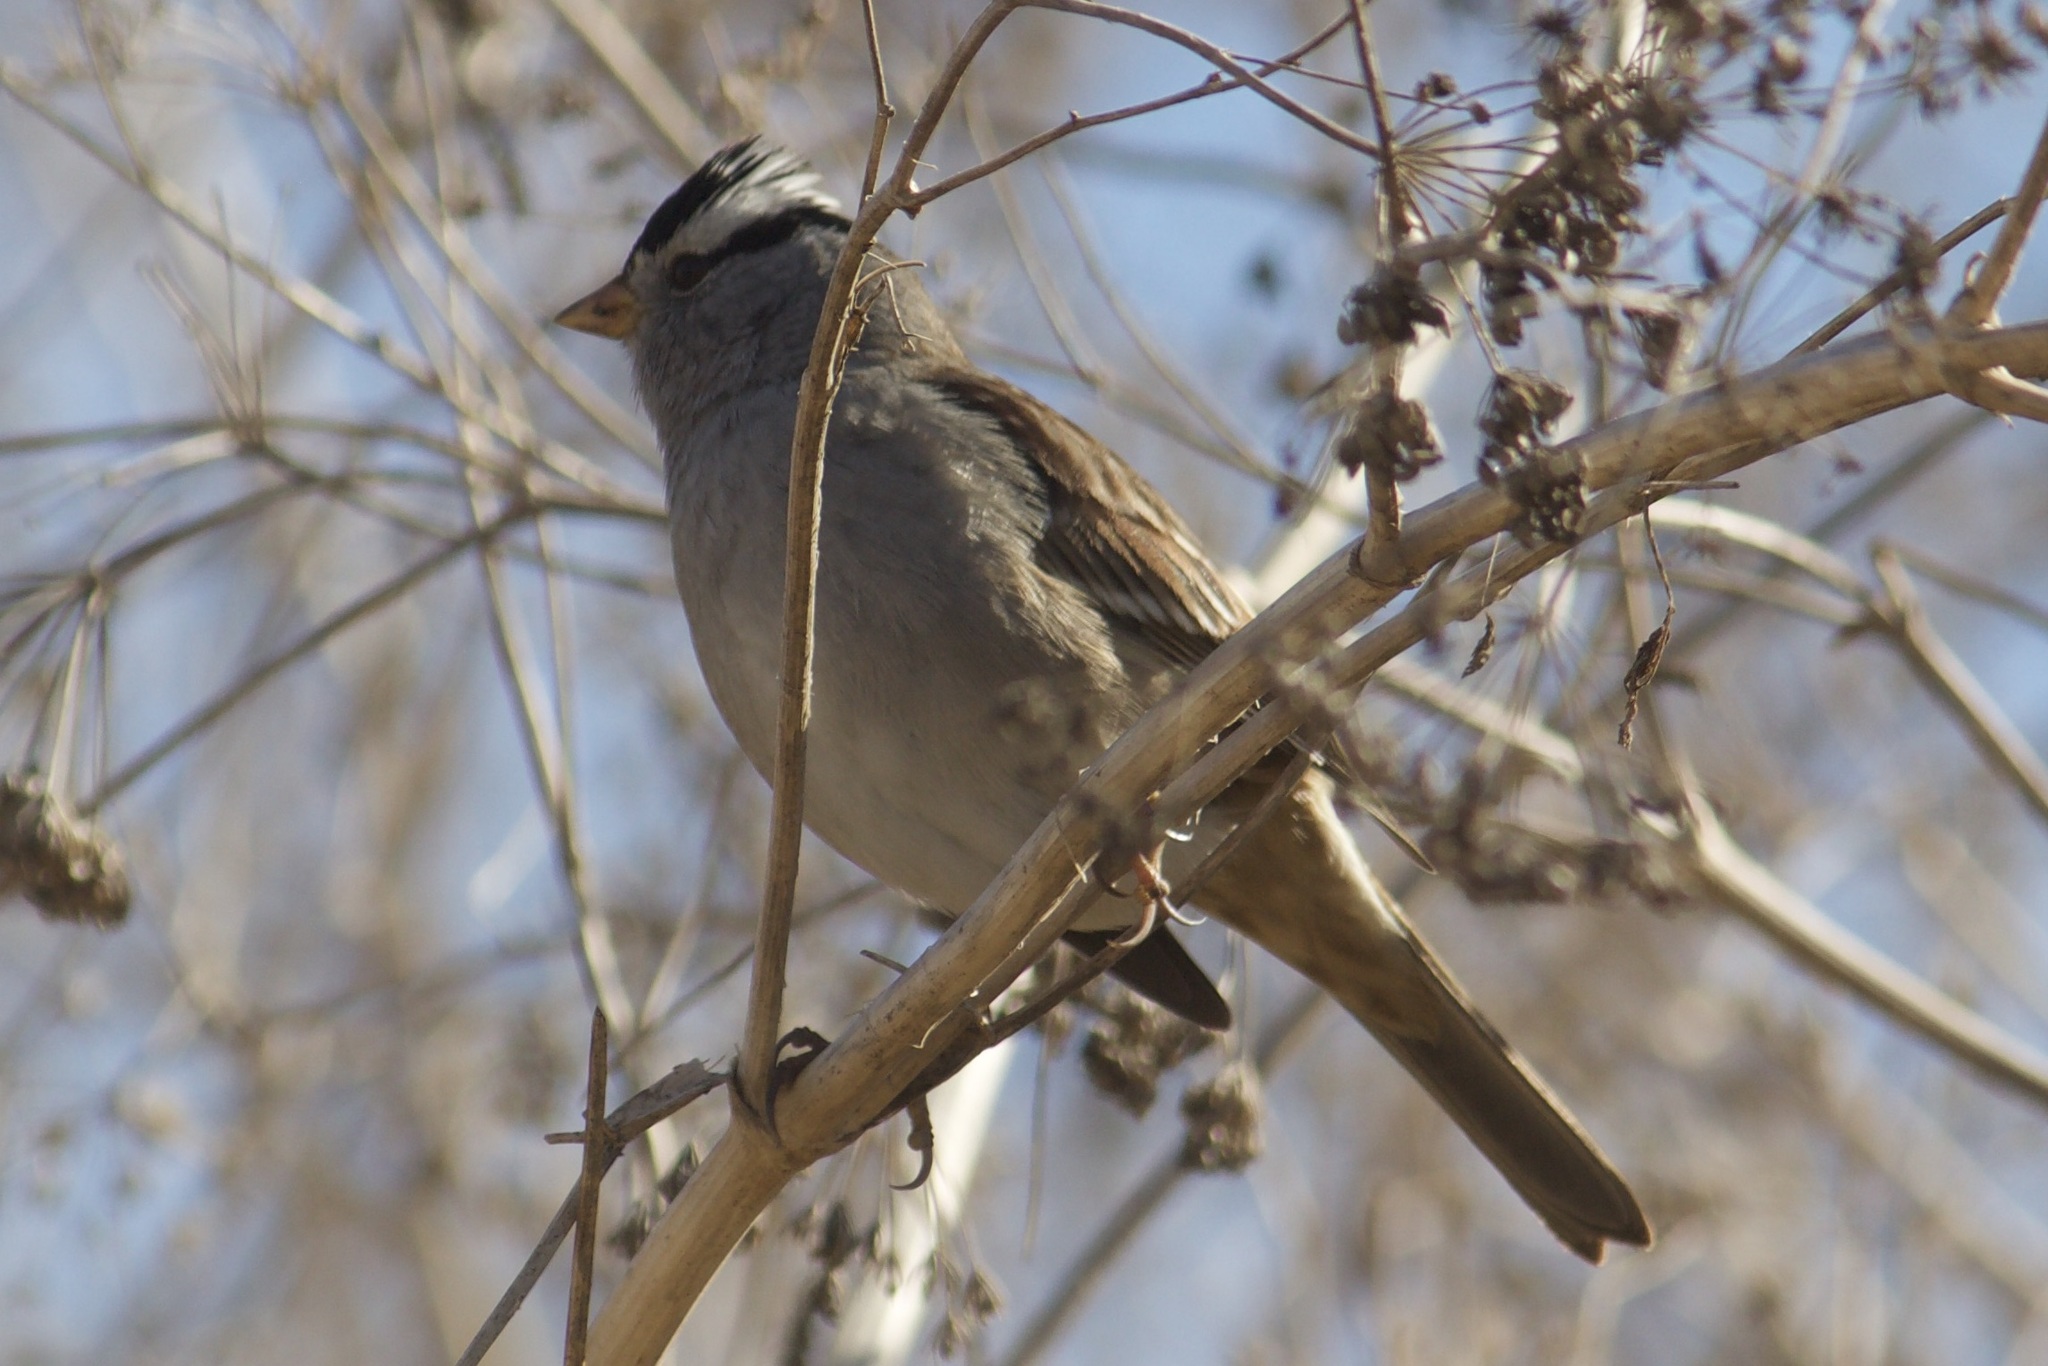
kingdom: Animalia
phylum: Chordata
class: Aves
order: Passeriformes
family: Passerellidae
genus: Zonotrichia
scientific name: Zonotrichia leucophrys
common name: White-crowned sparrow
